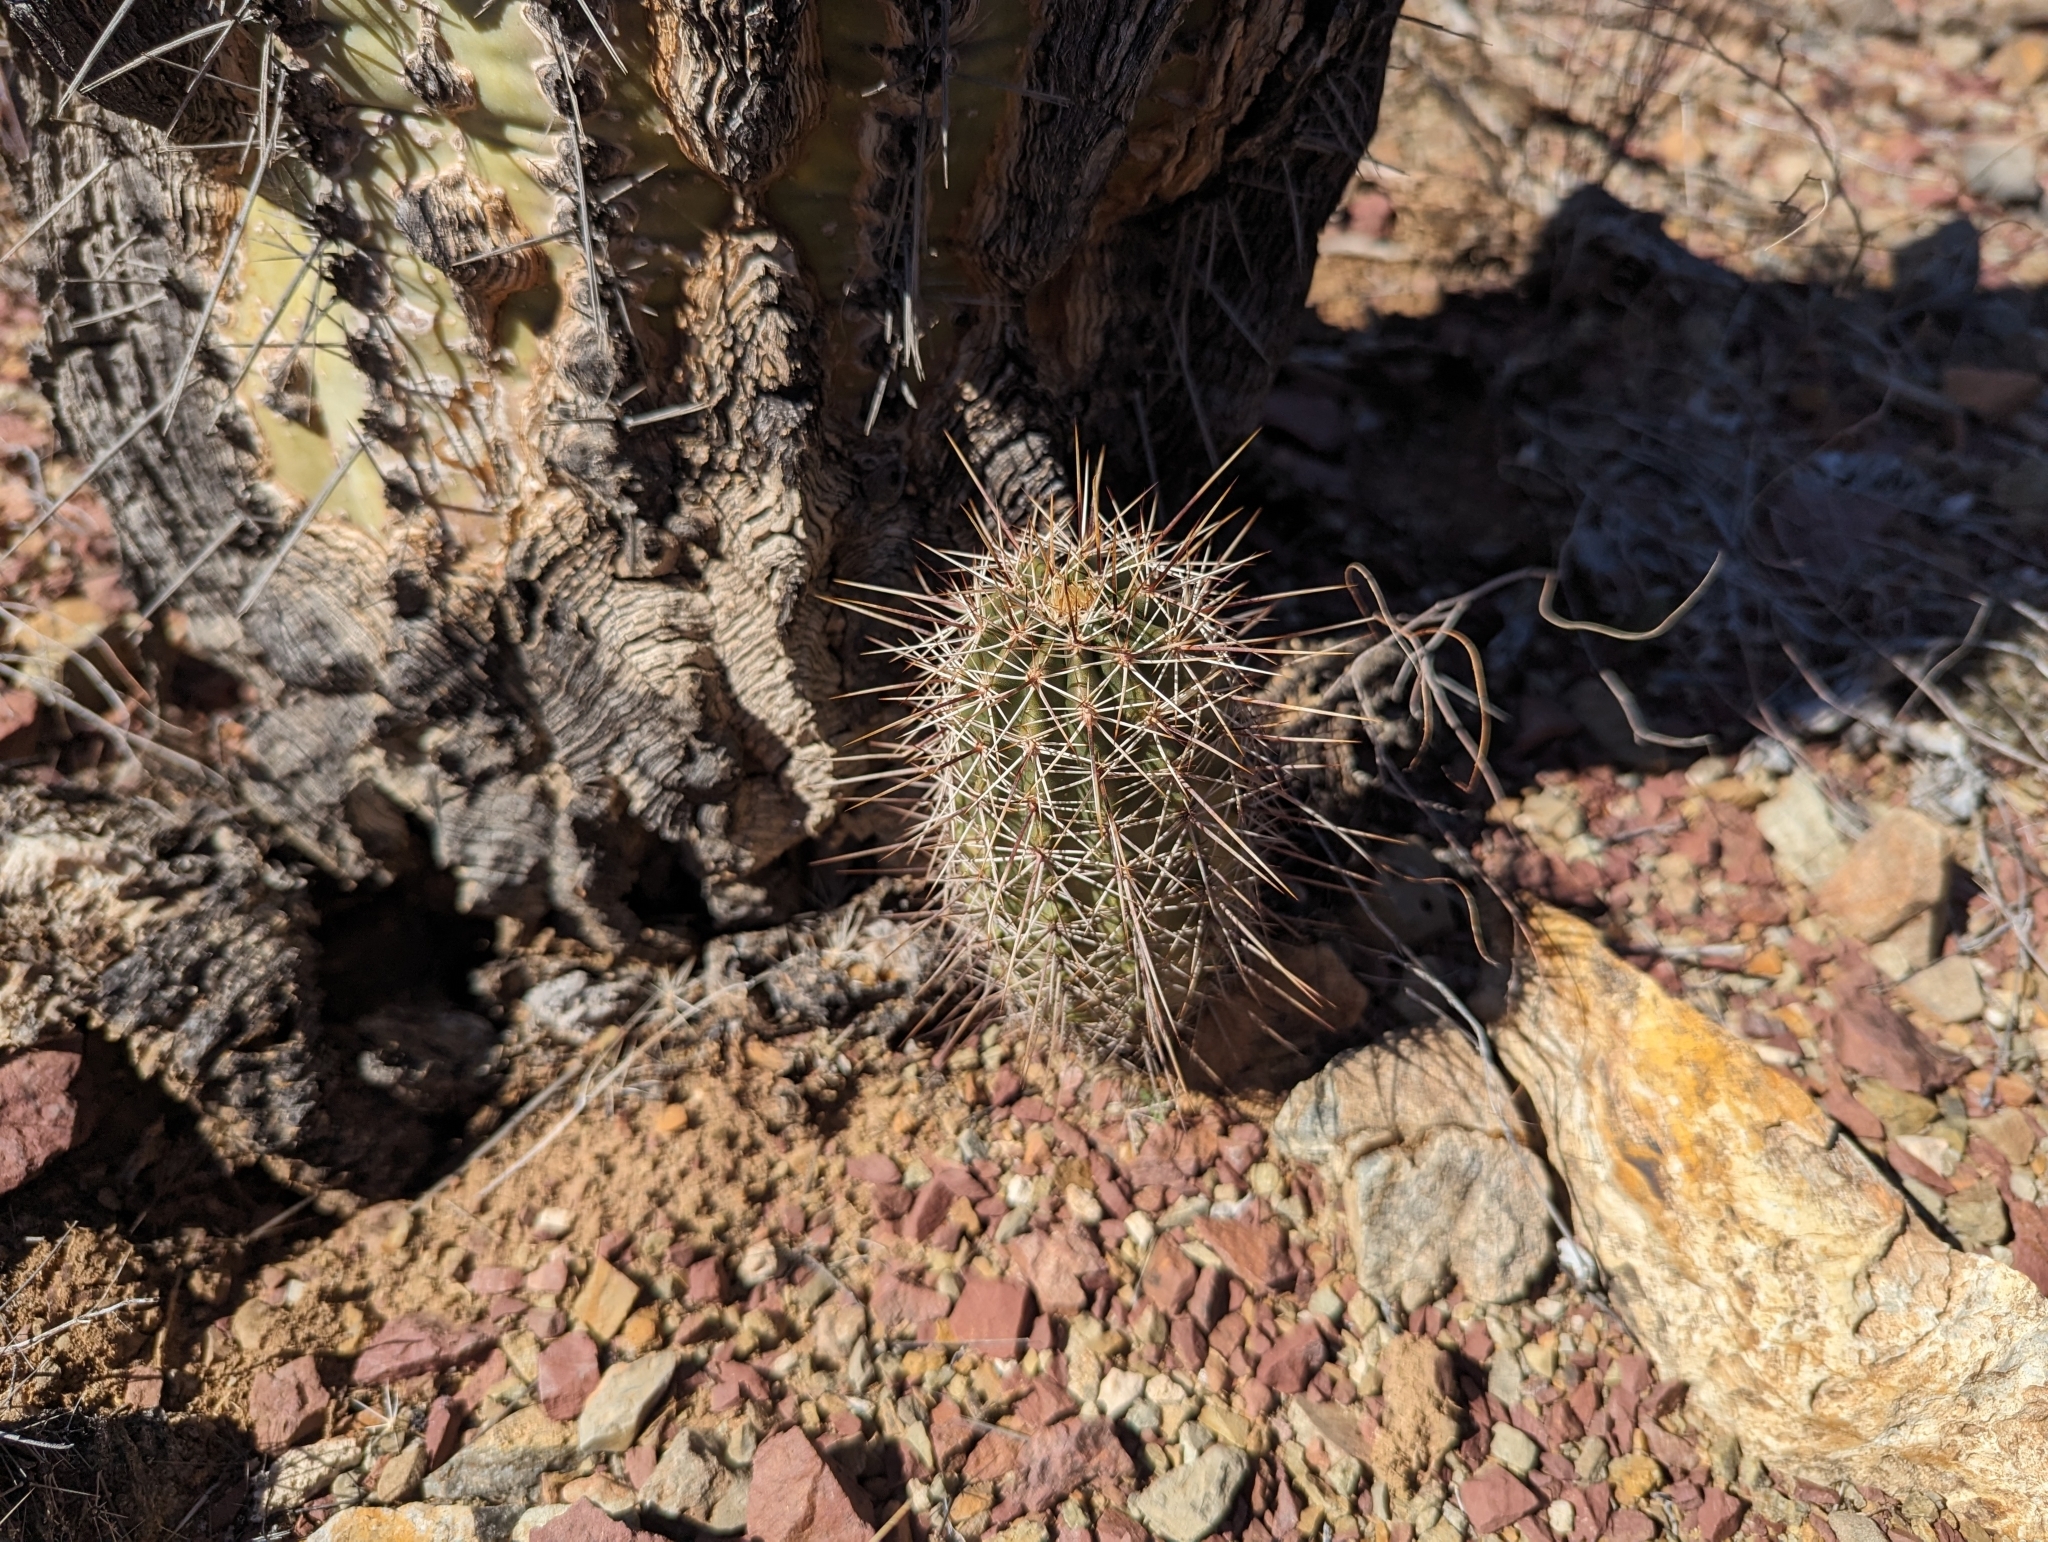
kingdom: Plantae
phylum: Tracheophyta
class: Magnoliopsida
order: Caryophyllales
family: Cactaceae
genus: Echinocereus
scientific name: Echinocereus fasciculatus
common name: Bundle hedgehog
